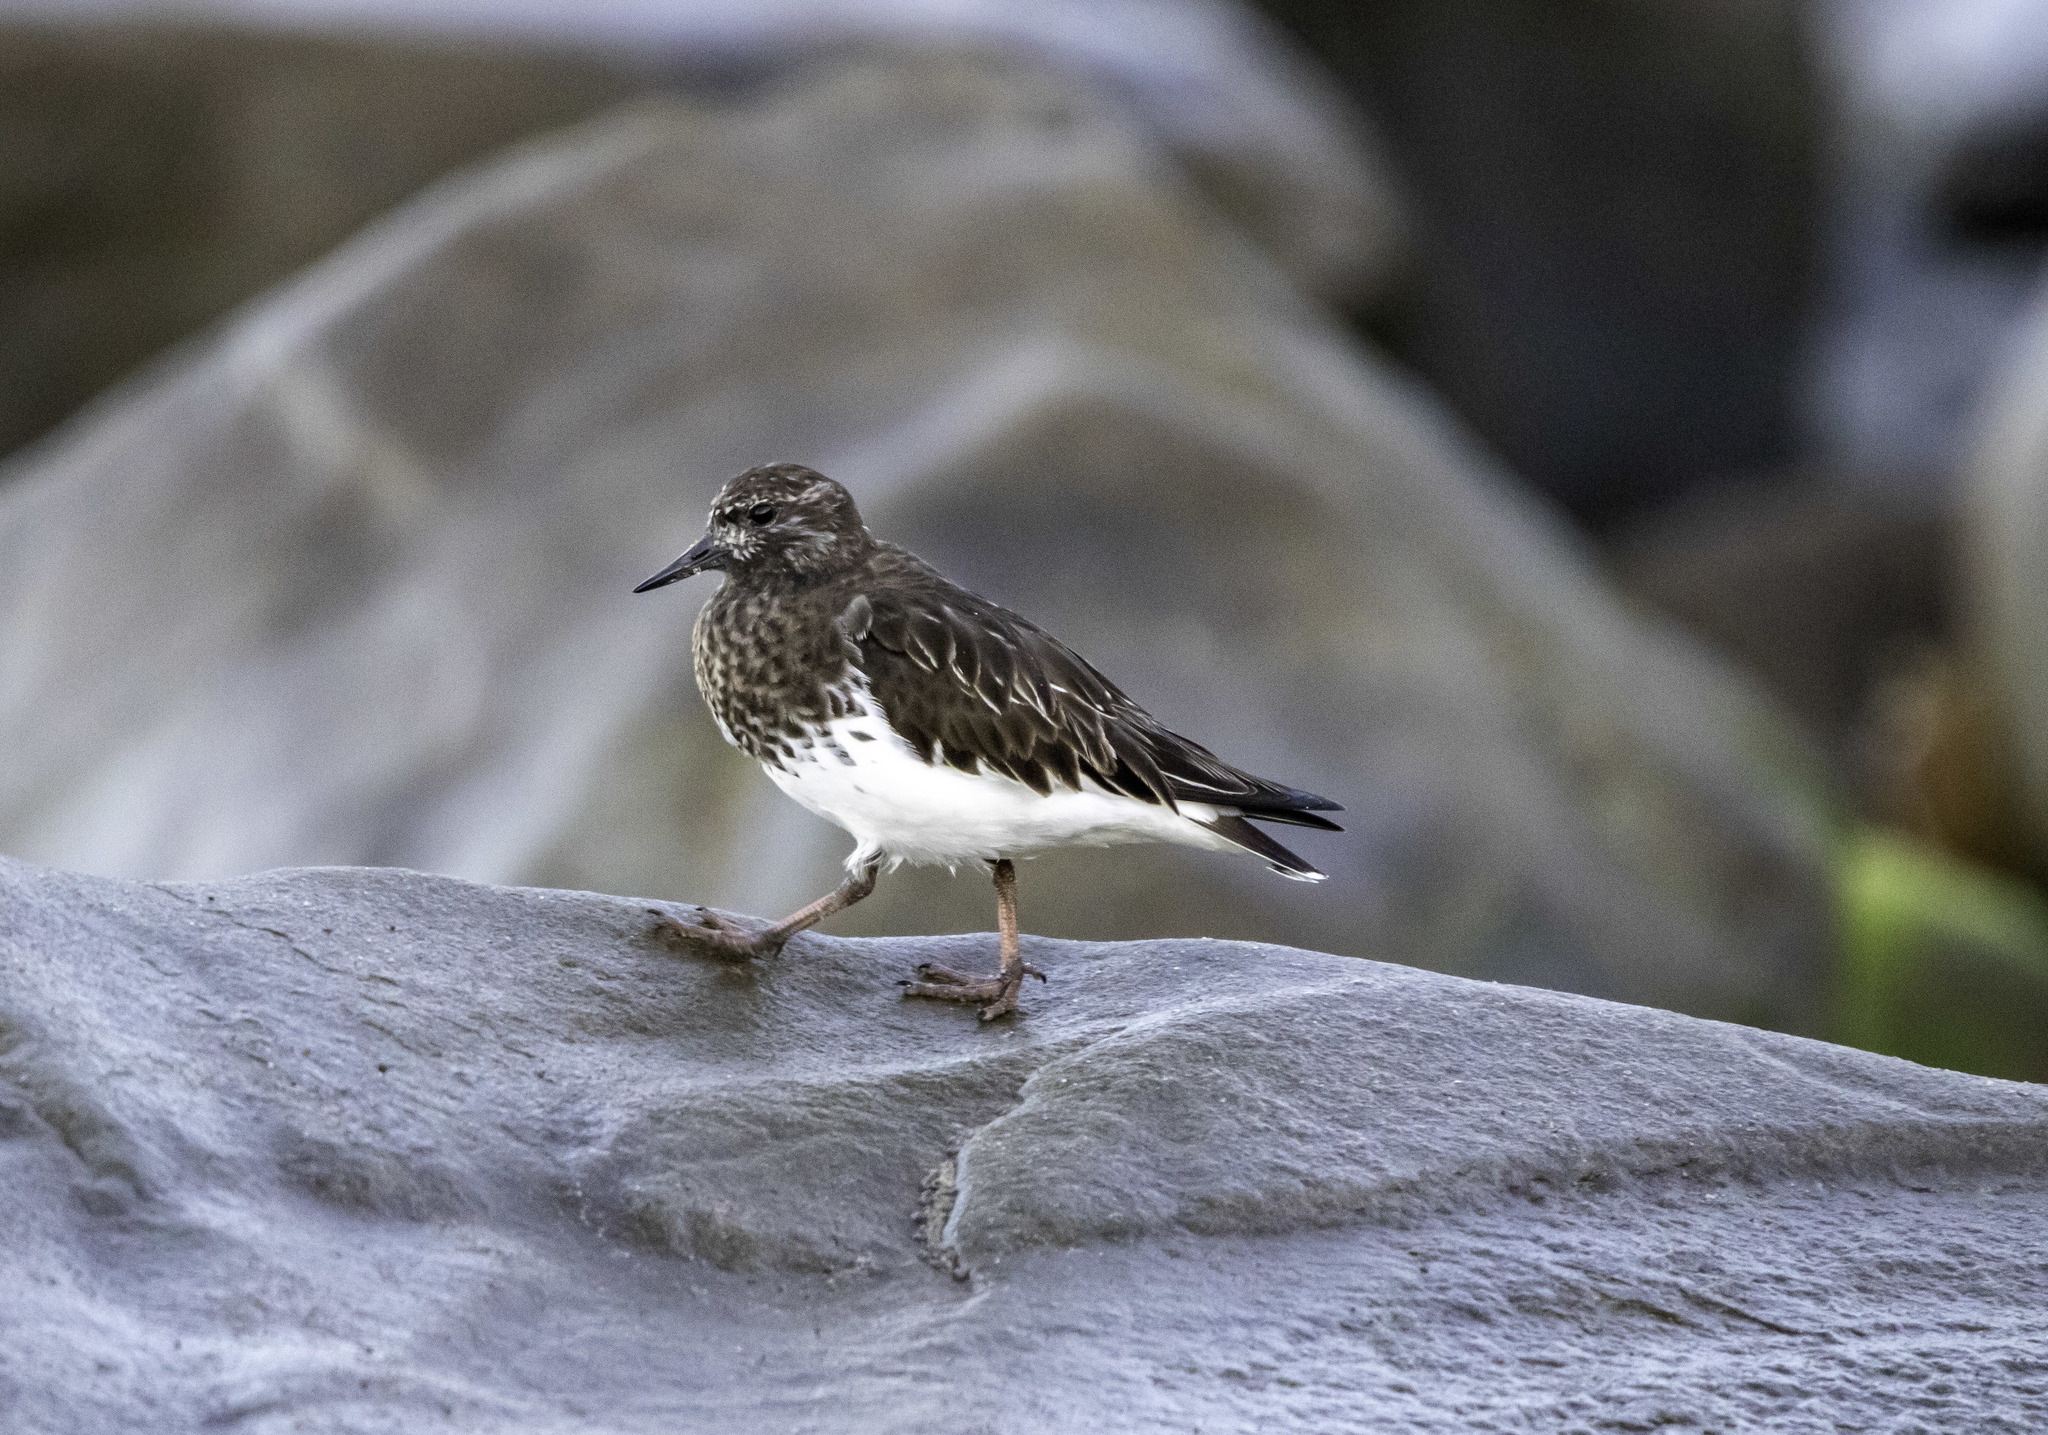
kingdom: Animalia
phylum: Chordata
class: Aves
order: Charadriiformes
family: Scolopacidae
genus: Arenaria
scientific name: Arenaria melanocephala
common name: Black turnstone
